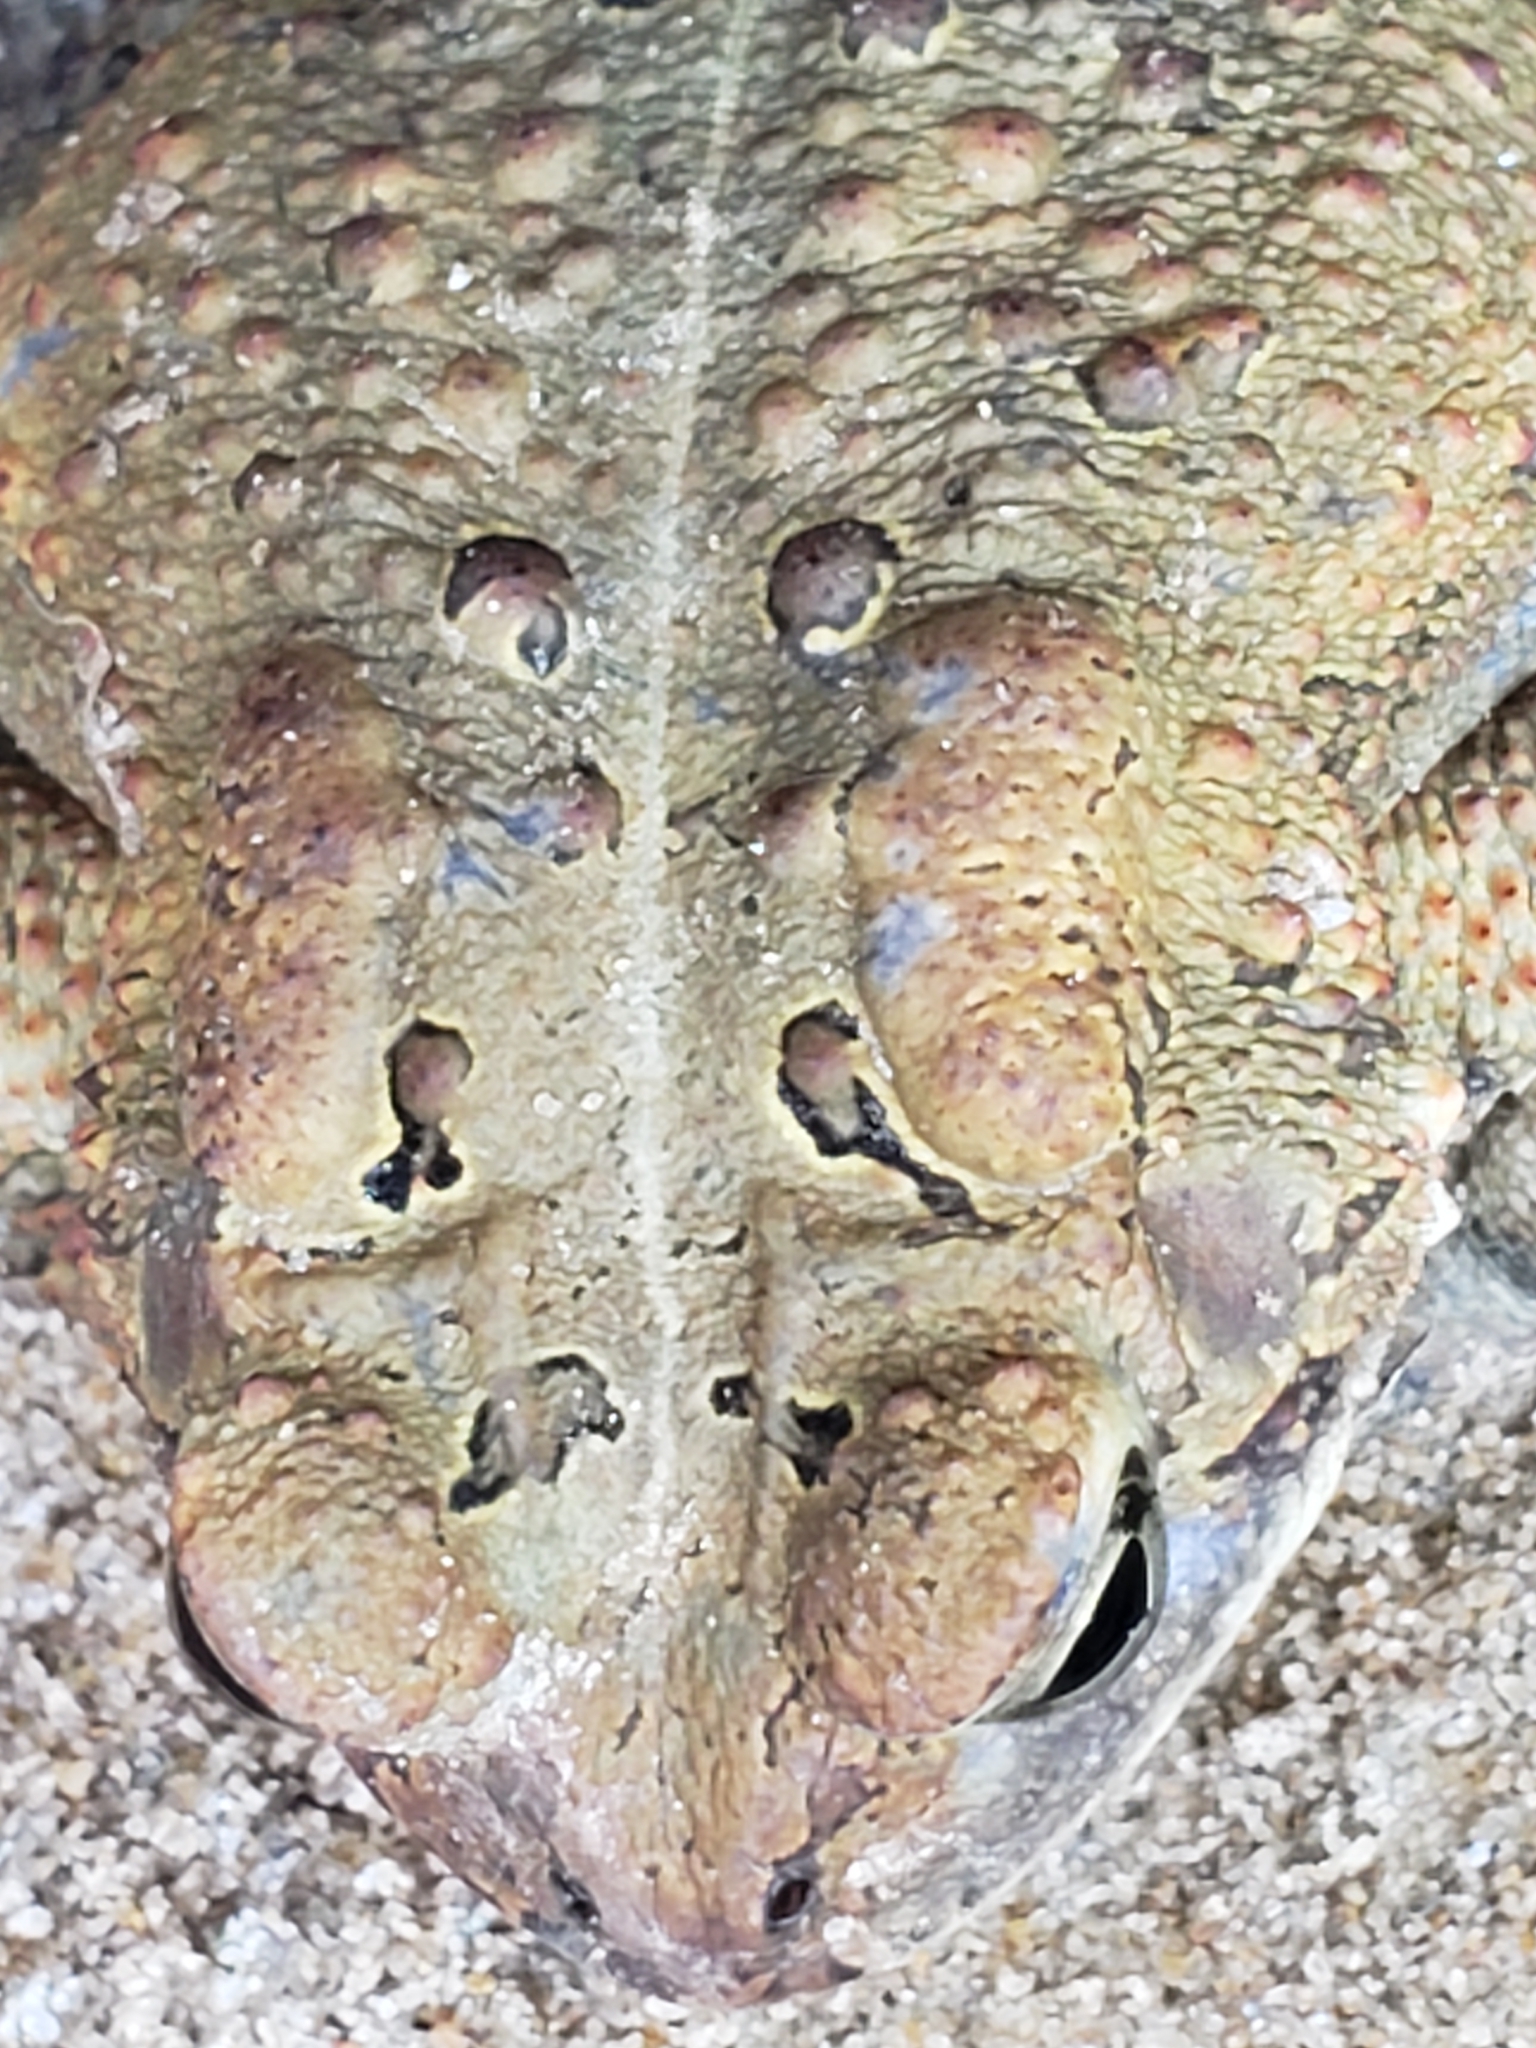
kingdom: Animalia
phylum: Chordata
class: Amphibia
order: Anura
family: Bufonidae
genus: Anaxyrus
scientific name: Anaxyrus americanus
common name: American toad
